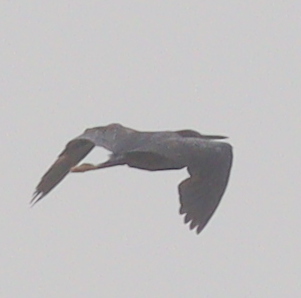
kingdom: Animalia
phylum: Chordata
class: Aves
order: Pelecaniformes
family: Ardeidae
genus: Egretta
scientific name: Egretta gularis
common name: Western reef-heron
